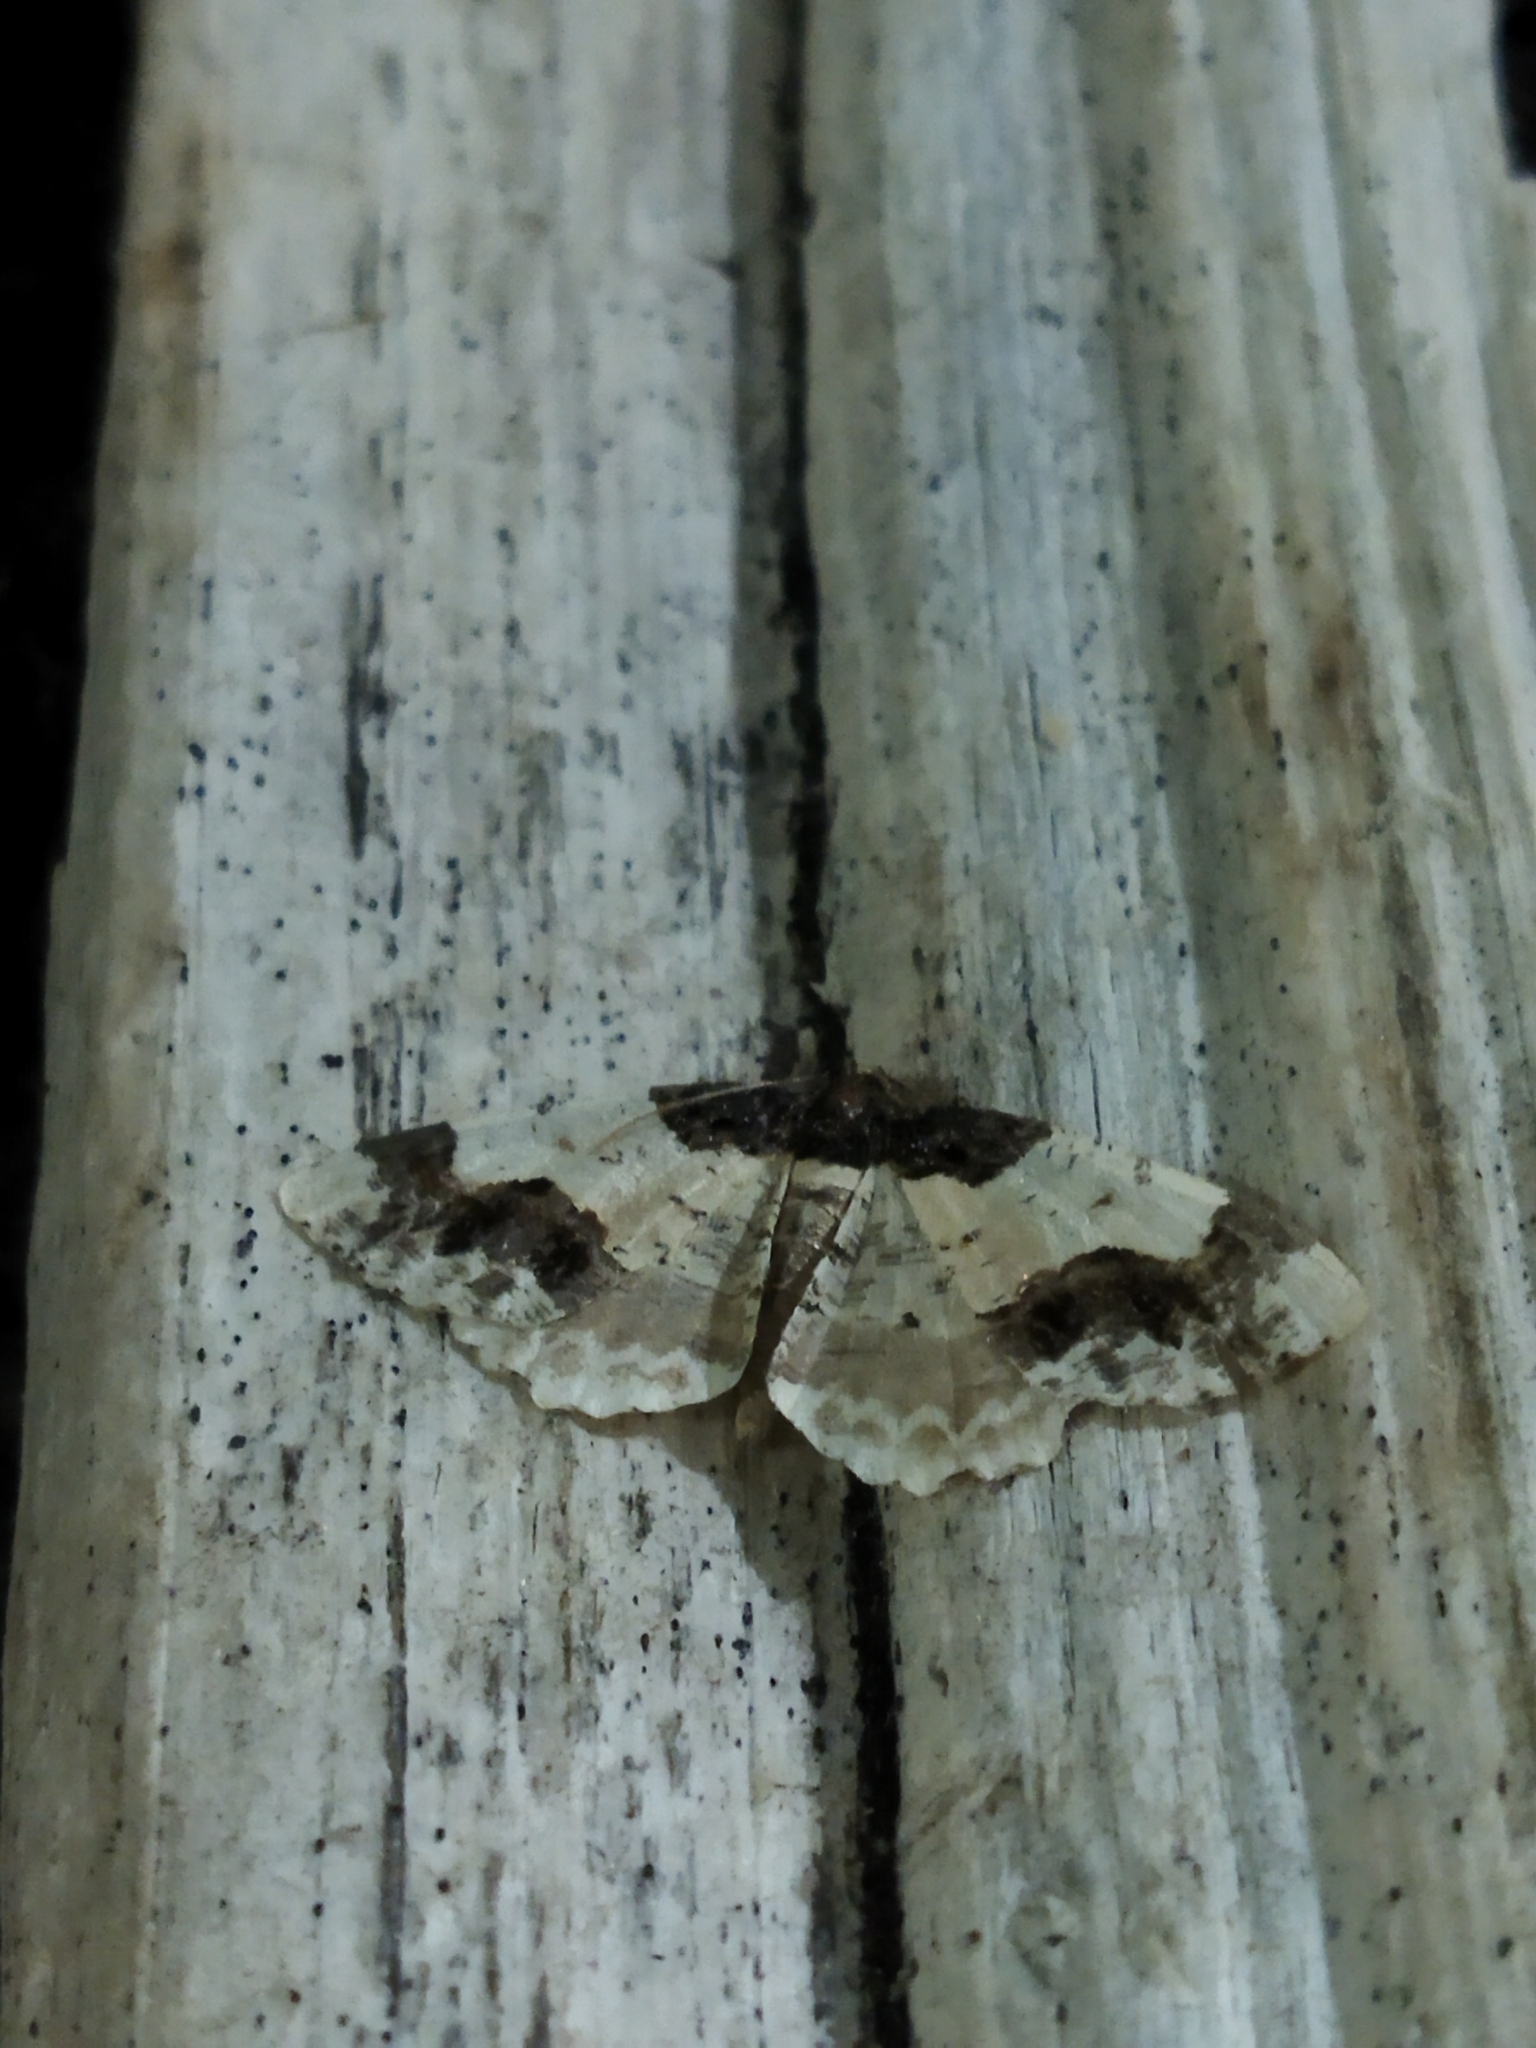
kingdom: Animalia
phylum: Arthropoda
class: Insecta
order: Lepidoptera
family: Geometridae
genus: Ligdia
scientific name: Ligdia adustata
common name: Scorched carpet
